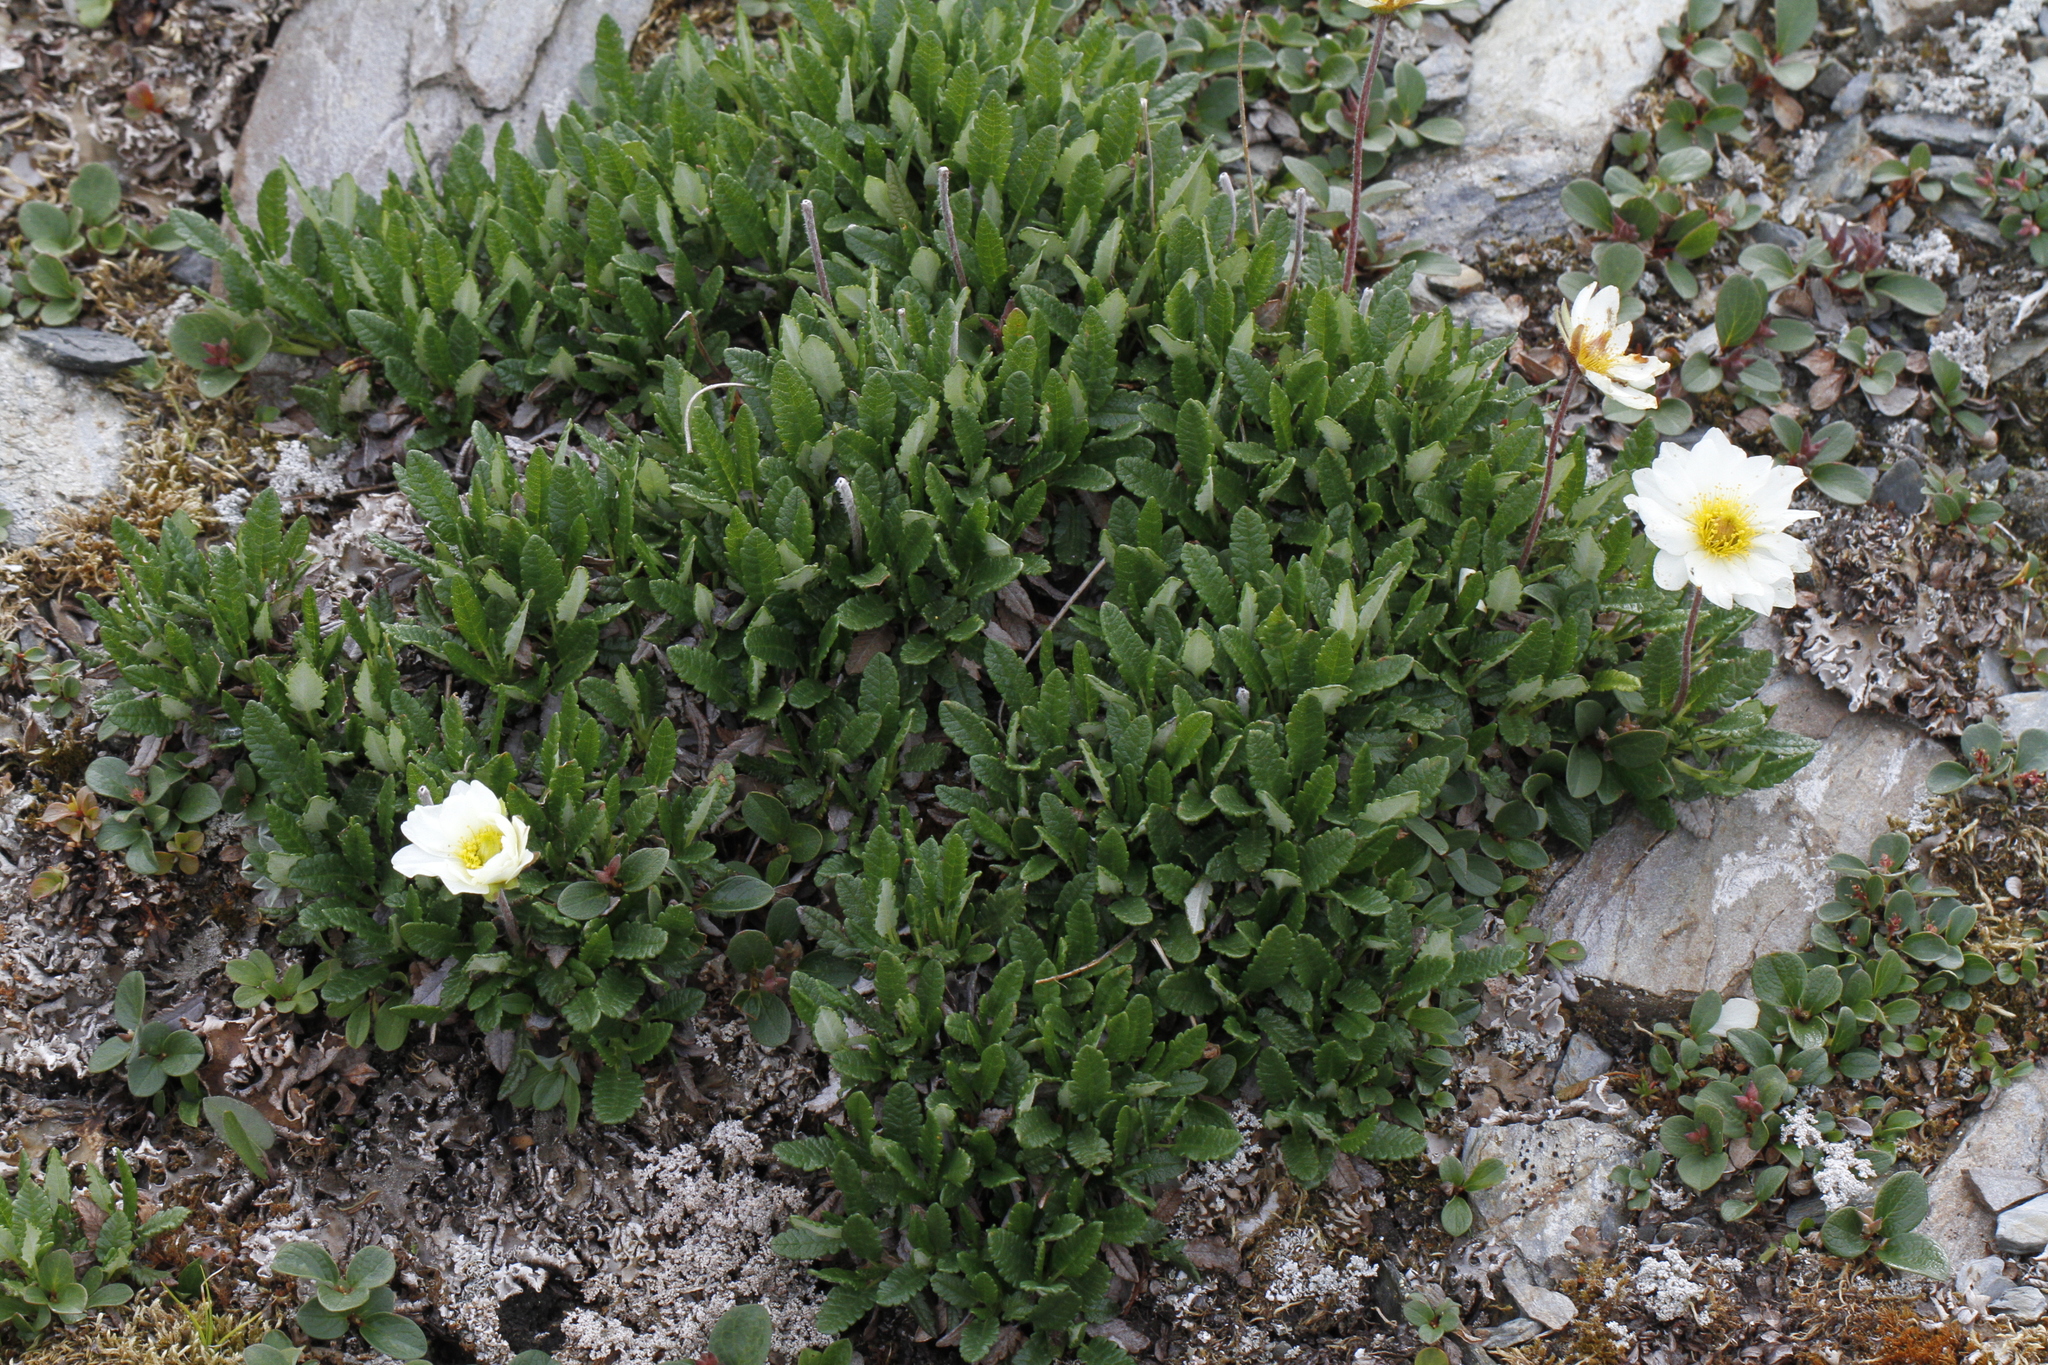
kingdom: Plantae
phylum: Tracheophyta
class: Magnoliopsida
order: Rosales
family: Rosaceae
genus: Dryas
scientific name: Dryas octopetala
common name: Eight-petal mountain-avens
